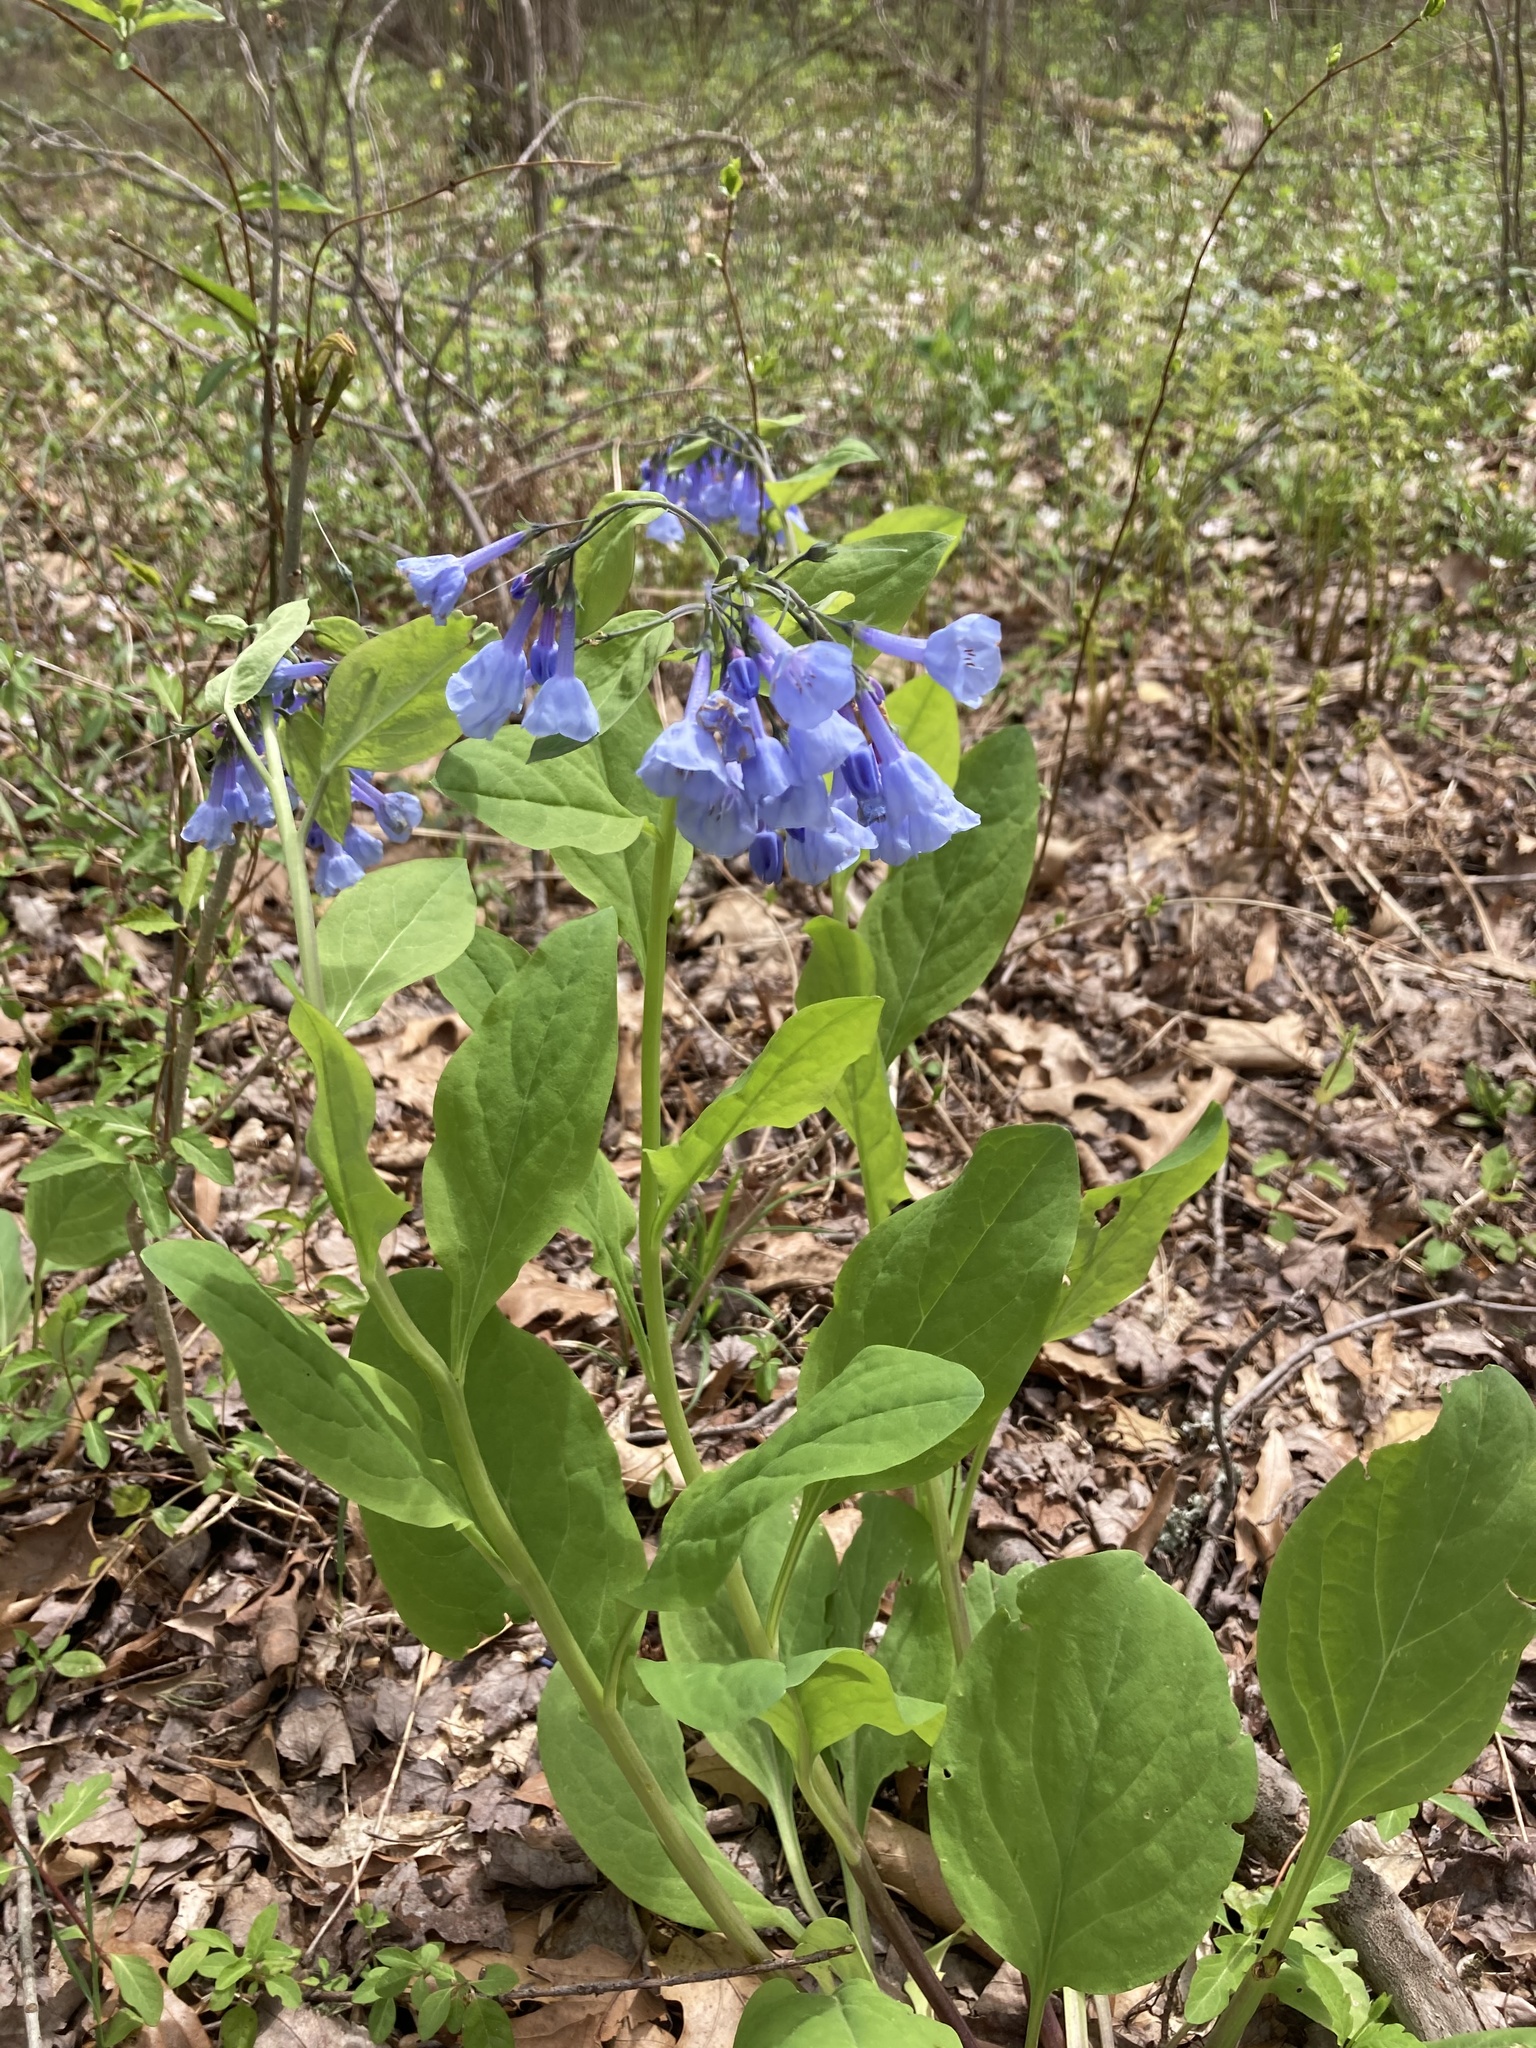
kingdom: Plantae
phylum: Tracheophyta
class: Magnoliopsida
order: Boraginales
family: Boraginaceae
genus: Mertensia
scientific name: Mertensia virginica
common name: Virginia bluebells
